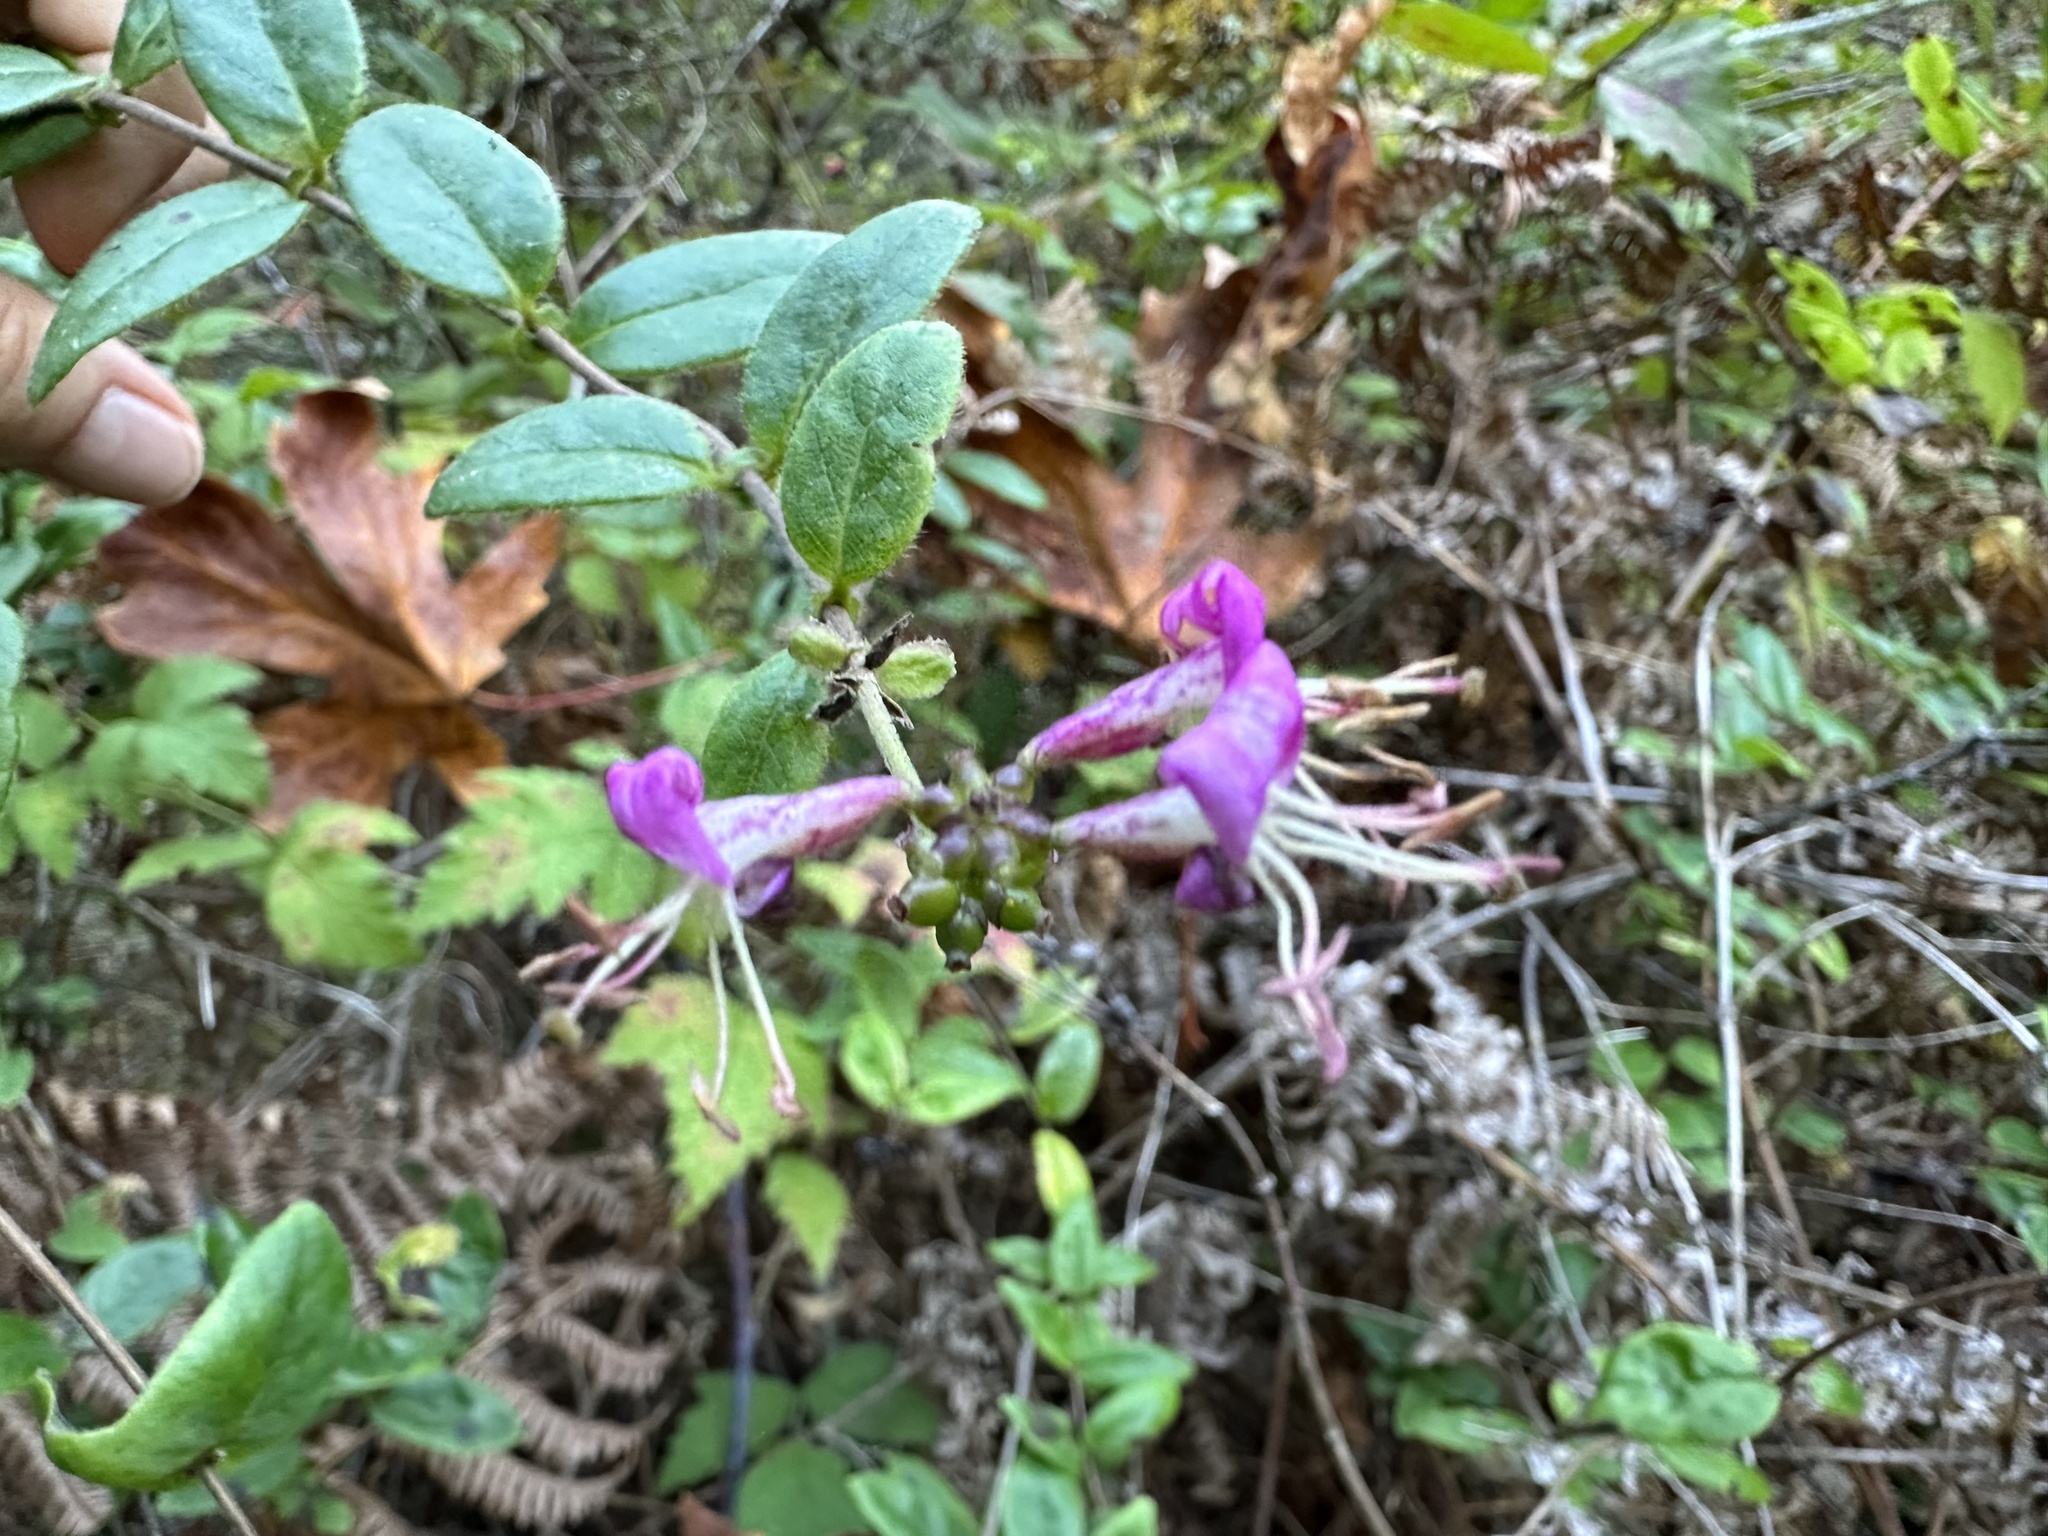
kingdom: Plantae
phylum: Tracheophyta
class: Magnoliopsida
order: Dipsacales
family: Caprifoliaceae
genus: Lonicera
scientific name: Lonicera hispidula
